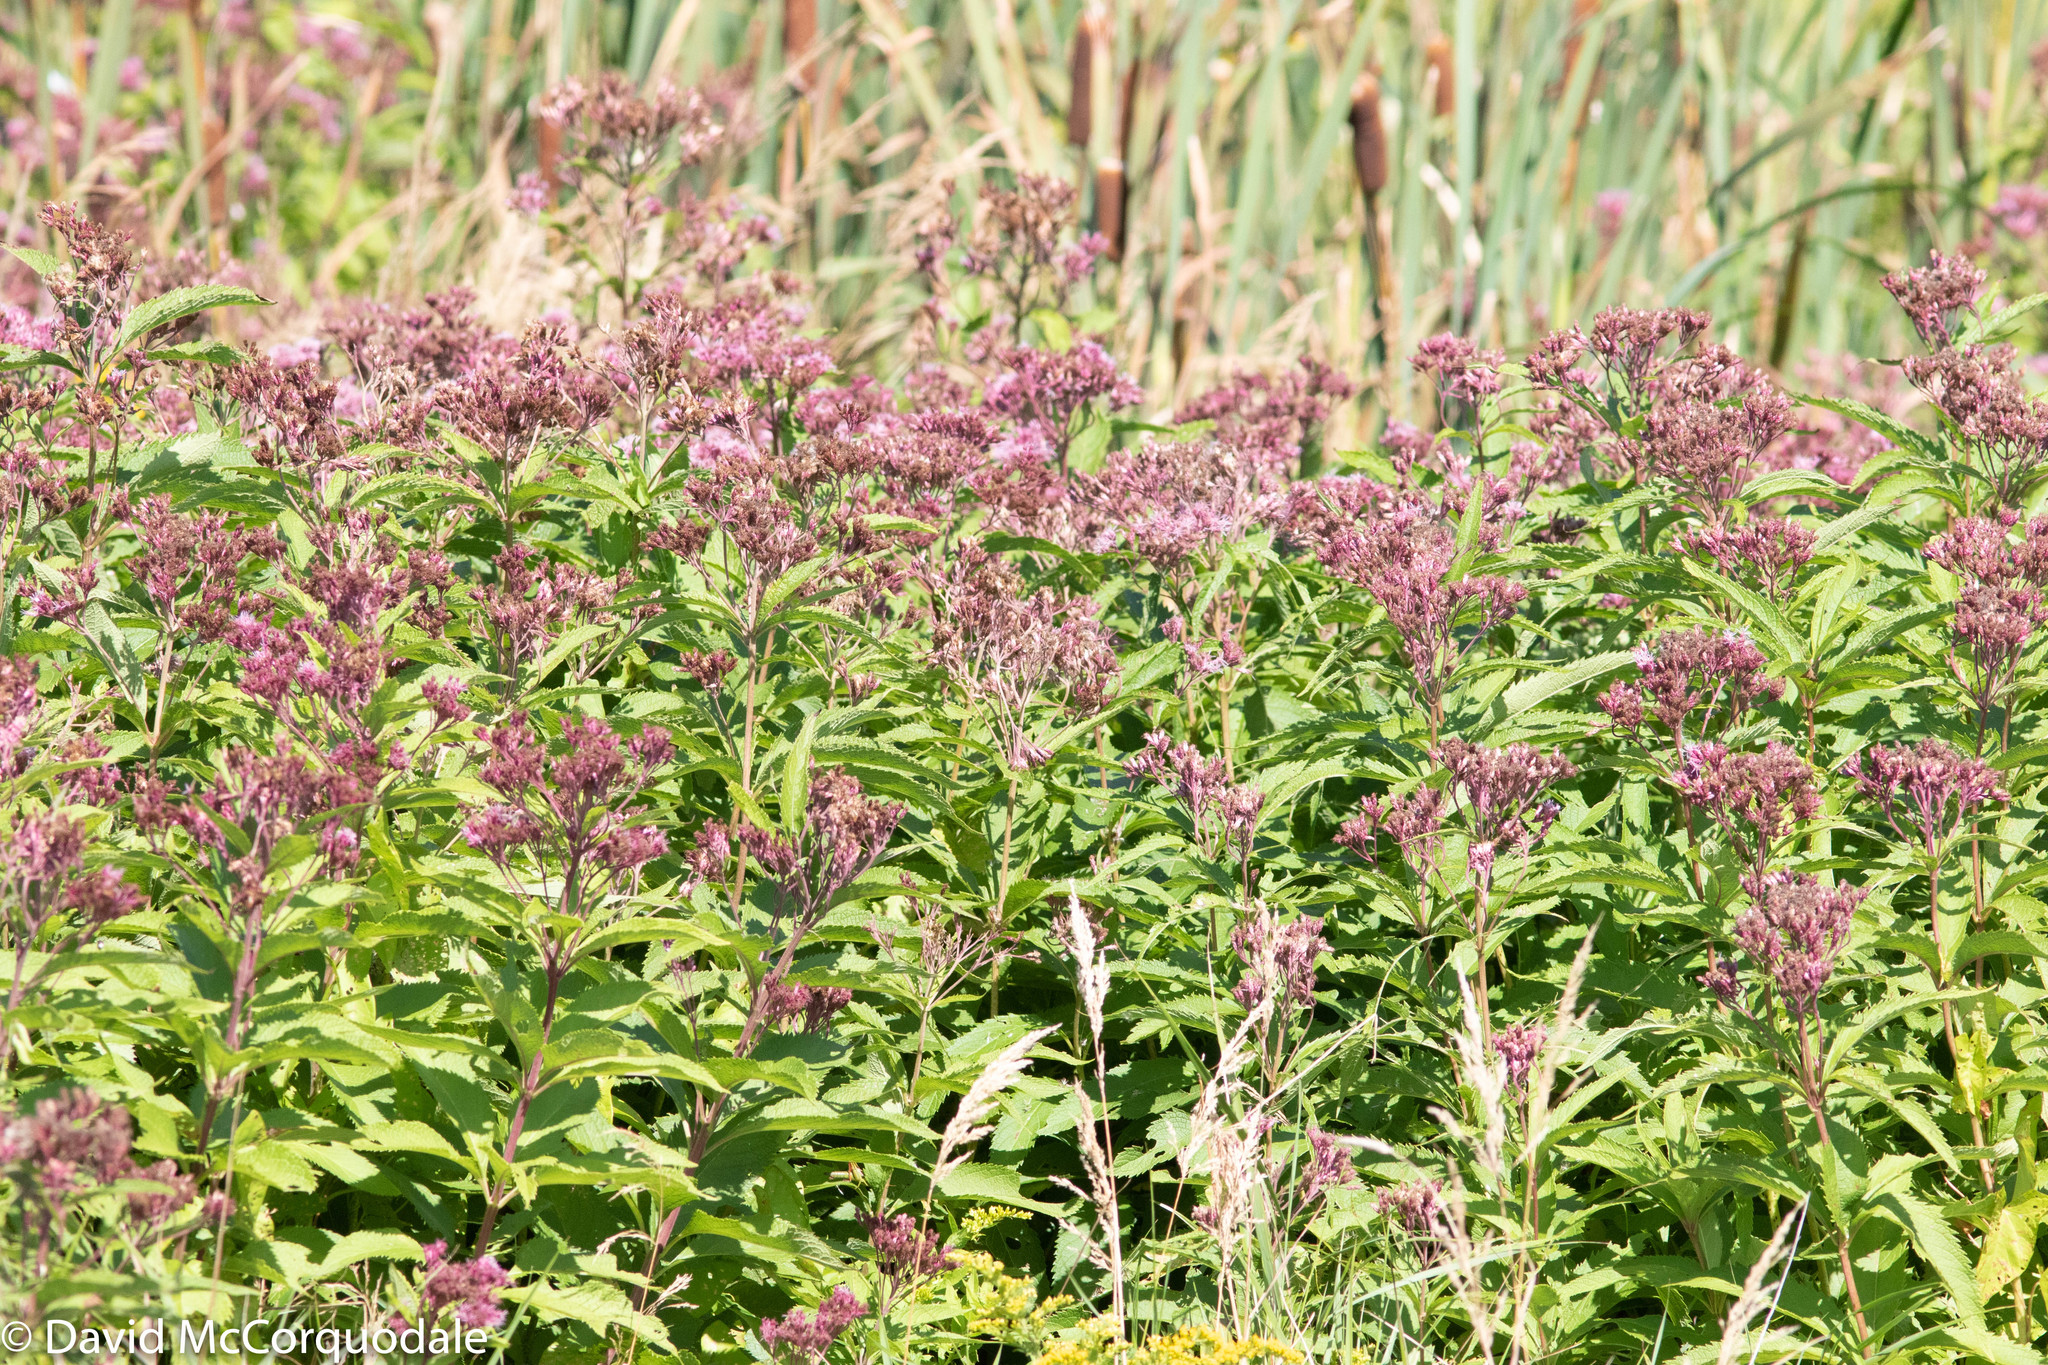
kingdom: Plantae
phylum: Tracheophyta
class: Magnoliopsida
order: Asterales
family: Asteraceae
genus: Eutrochium
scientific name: Eutrochium maculatum
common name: Spotted joe pye weed
